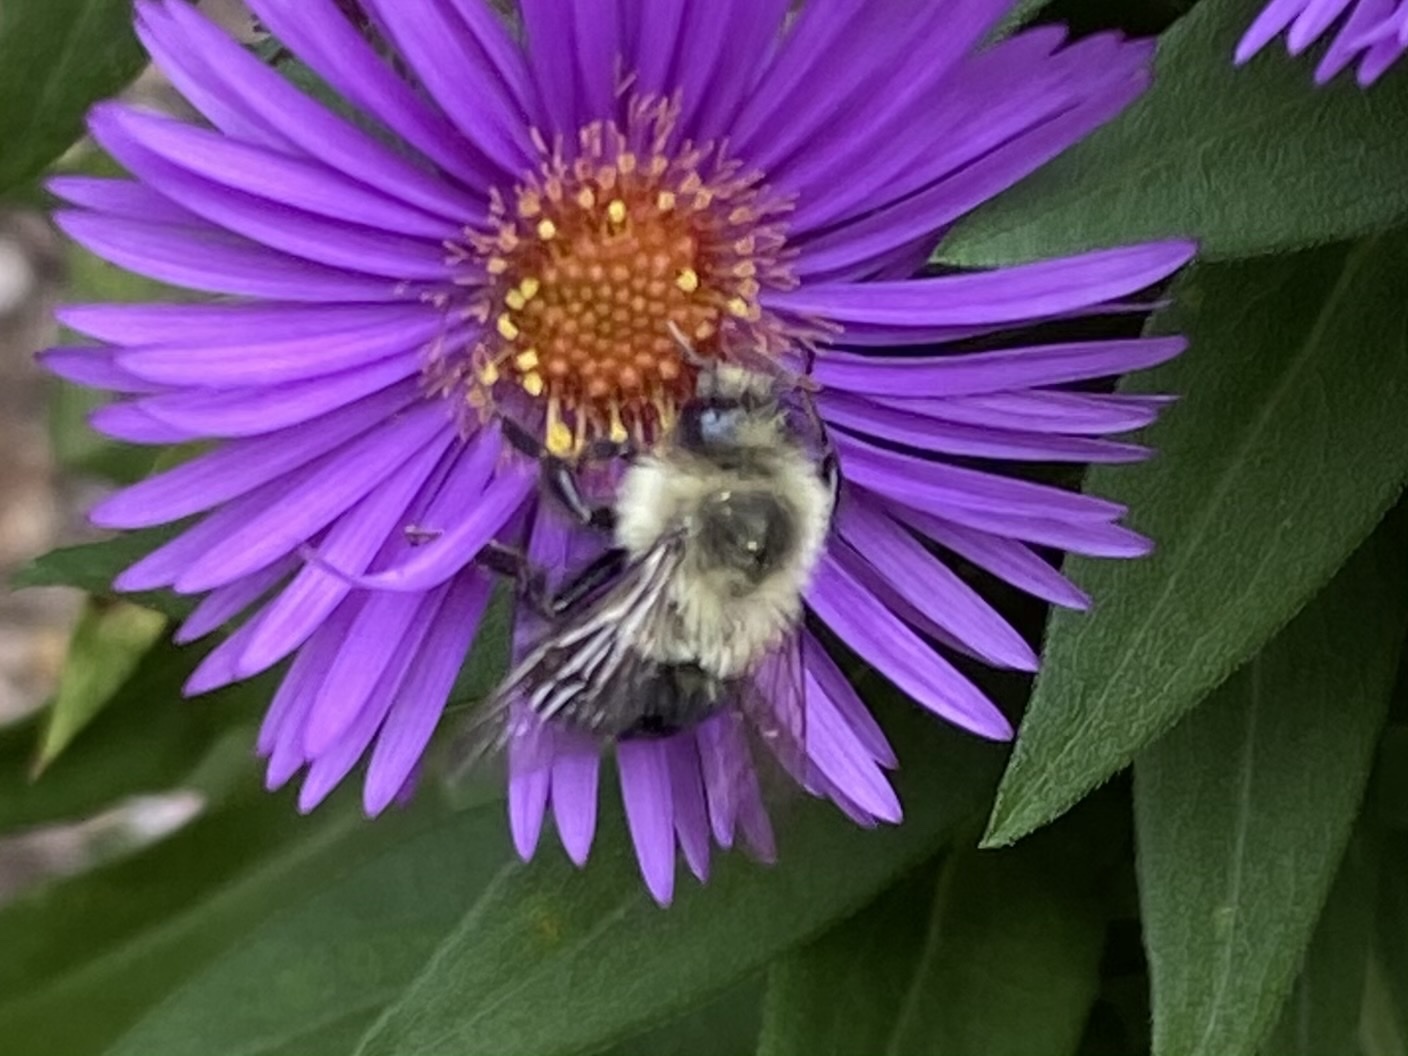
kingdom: Animalia
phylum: Arthropoda
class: Insecta
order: Hymenoptera
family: Apidae
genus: Bombus
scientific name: Bombus impatiens
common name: Common eastern bumble bee
